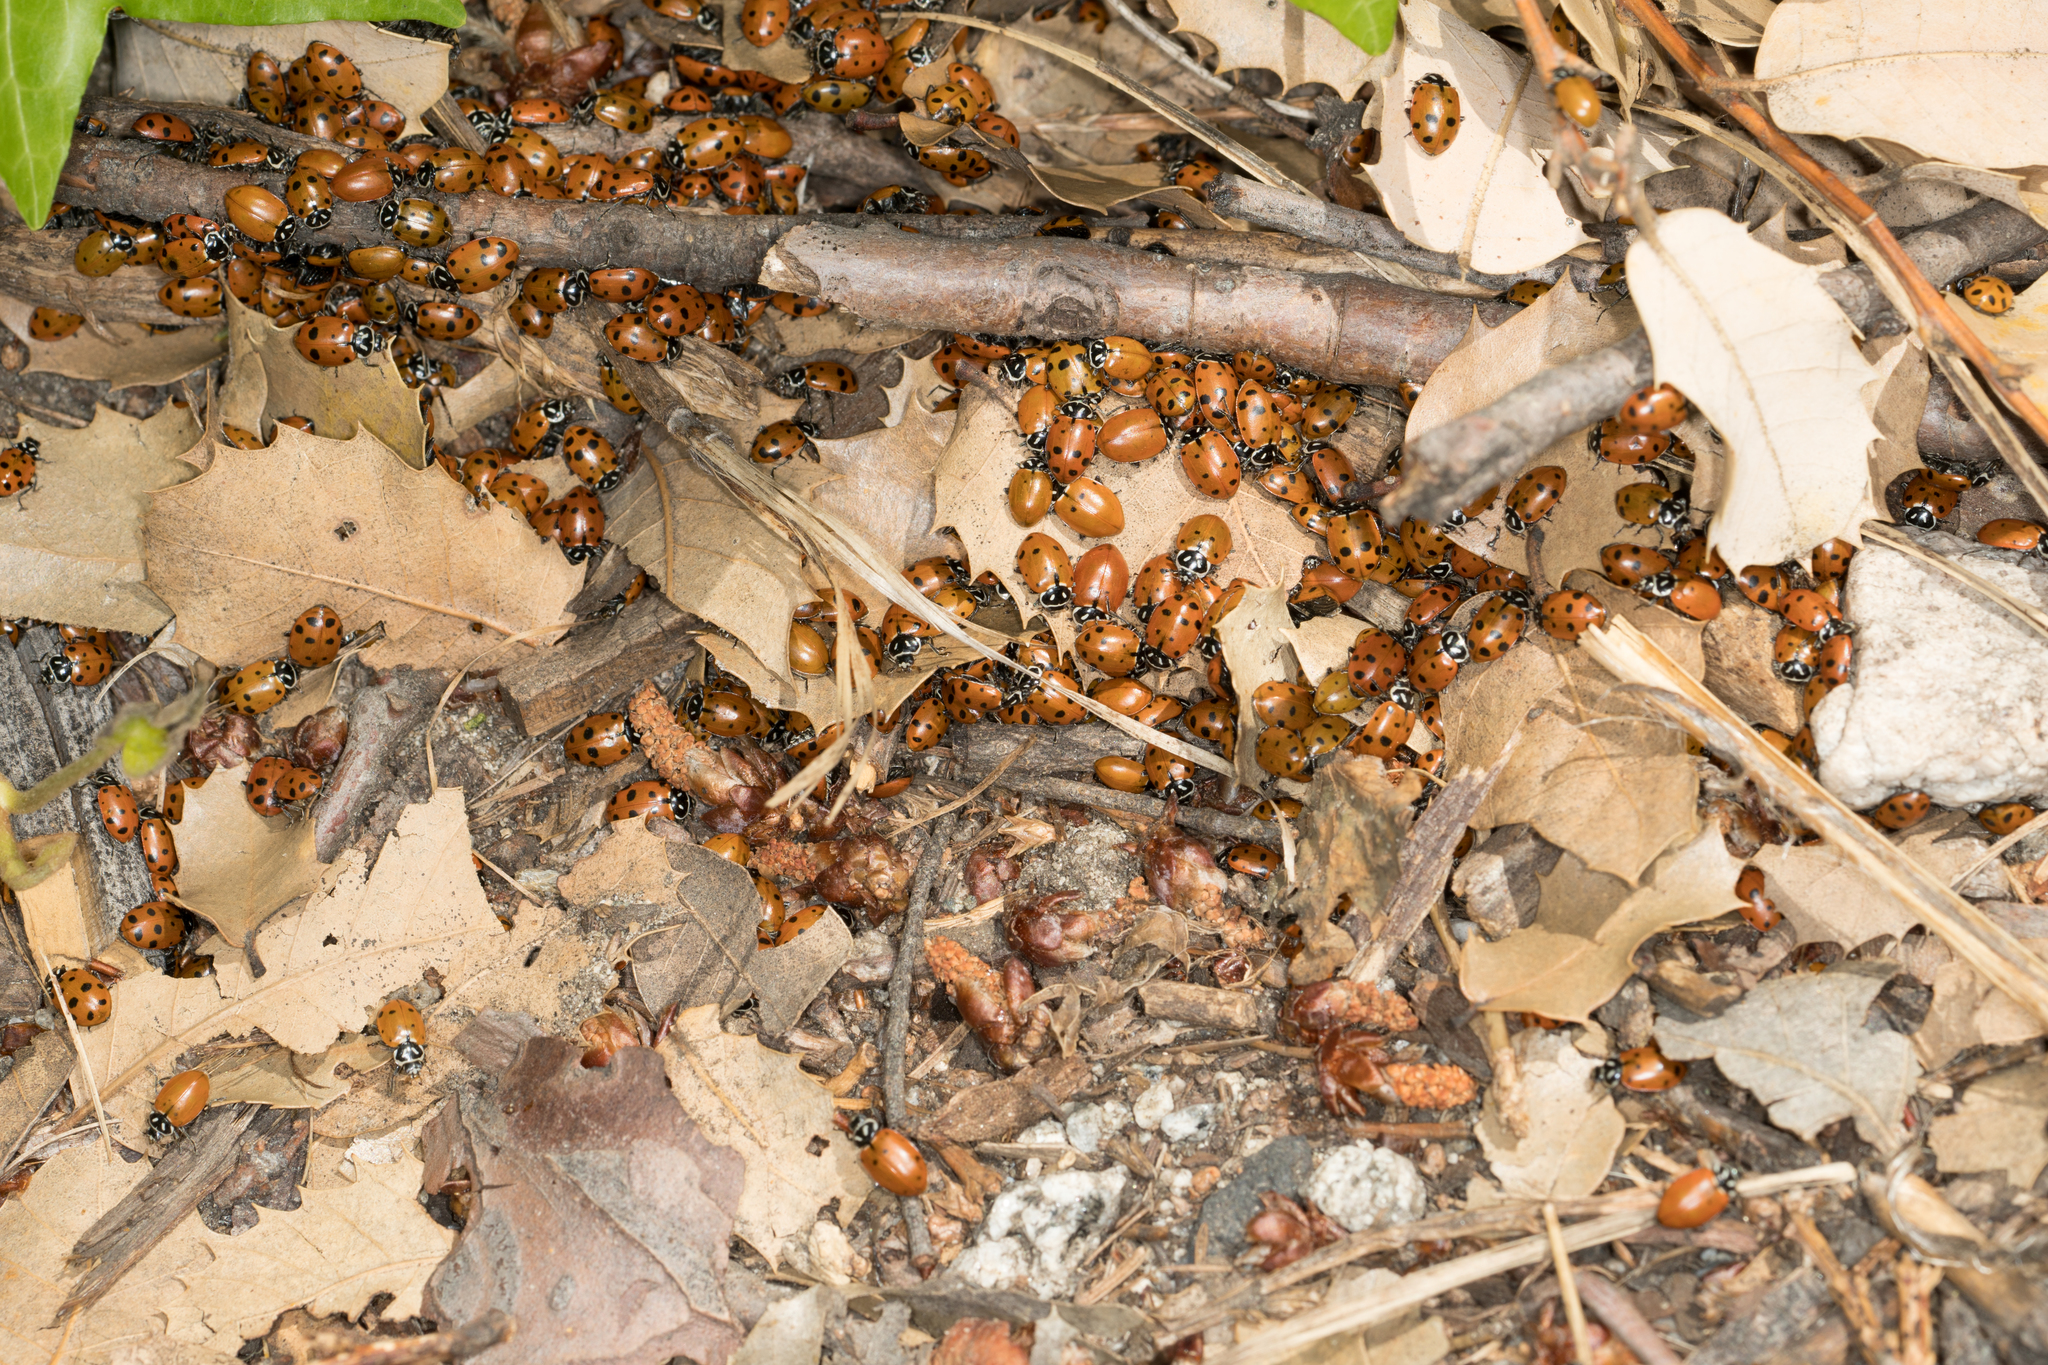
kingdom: Animalia
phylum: Arthropoda
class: Insecta
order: Coleoptera
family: Coccinellidae
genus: Hippodamia
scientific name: Hippodamia convergens
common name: Convergent lady beetle
